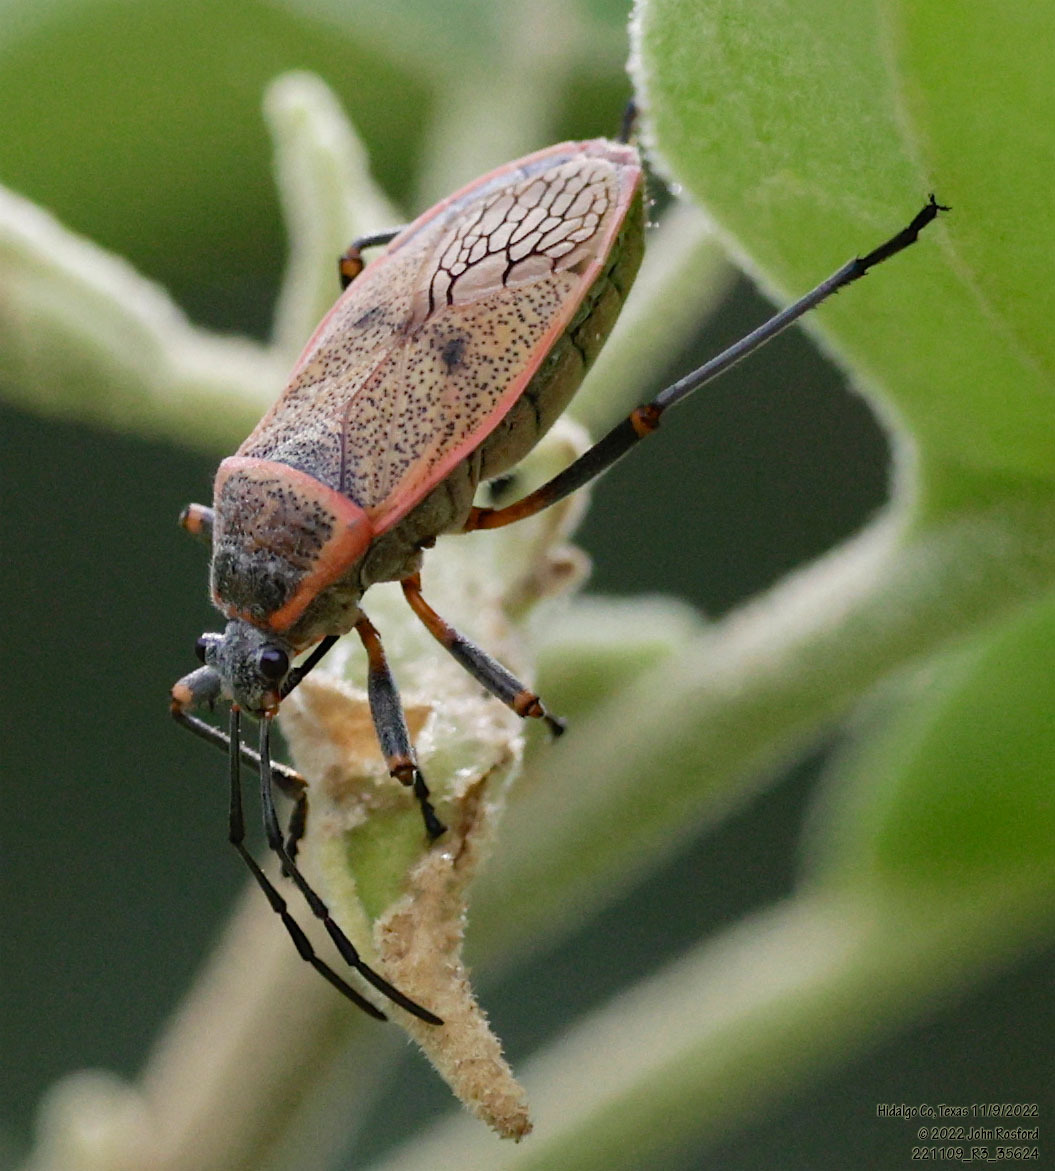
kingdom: Animalia
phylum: Arthropoda
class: Insecta
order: Hemiptera
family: Largidae
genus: Largus
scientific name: Largus maculatus
